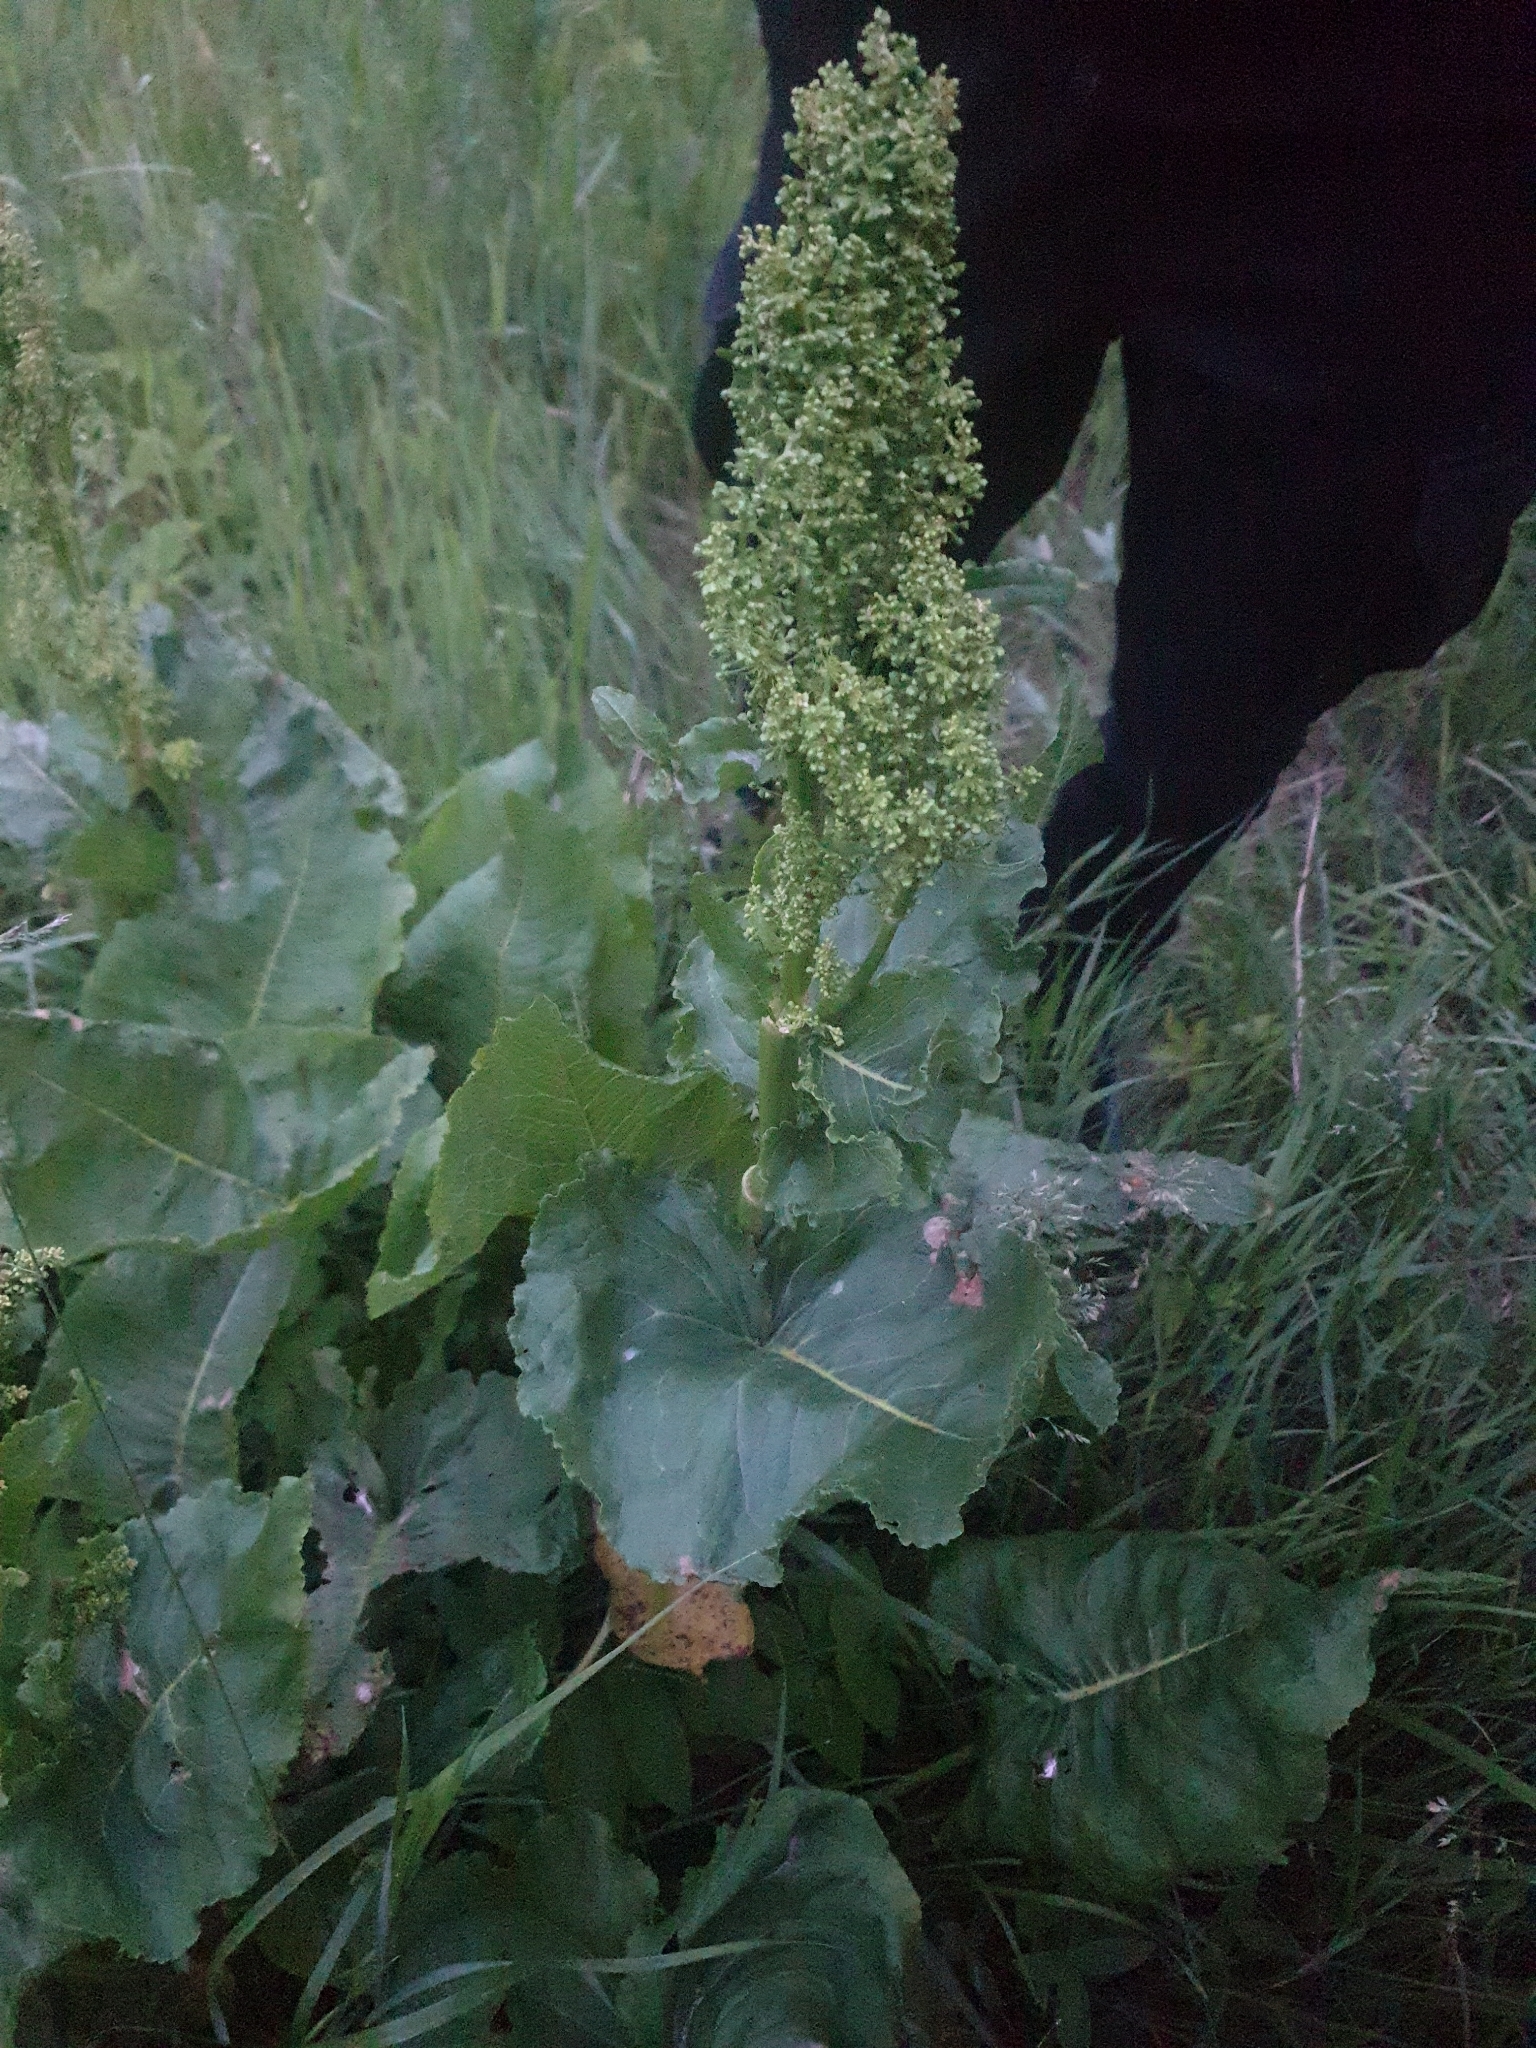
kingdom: Plantae
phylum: Tracheophyta
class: Magnoliopsida
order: Caryophyllales
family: Polygonaceae
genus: Rumex
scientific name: Rumex confertus
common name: Russian dock
